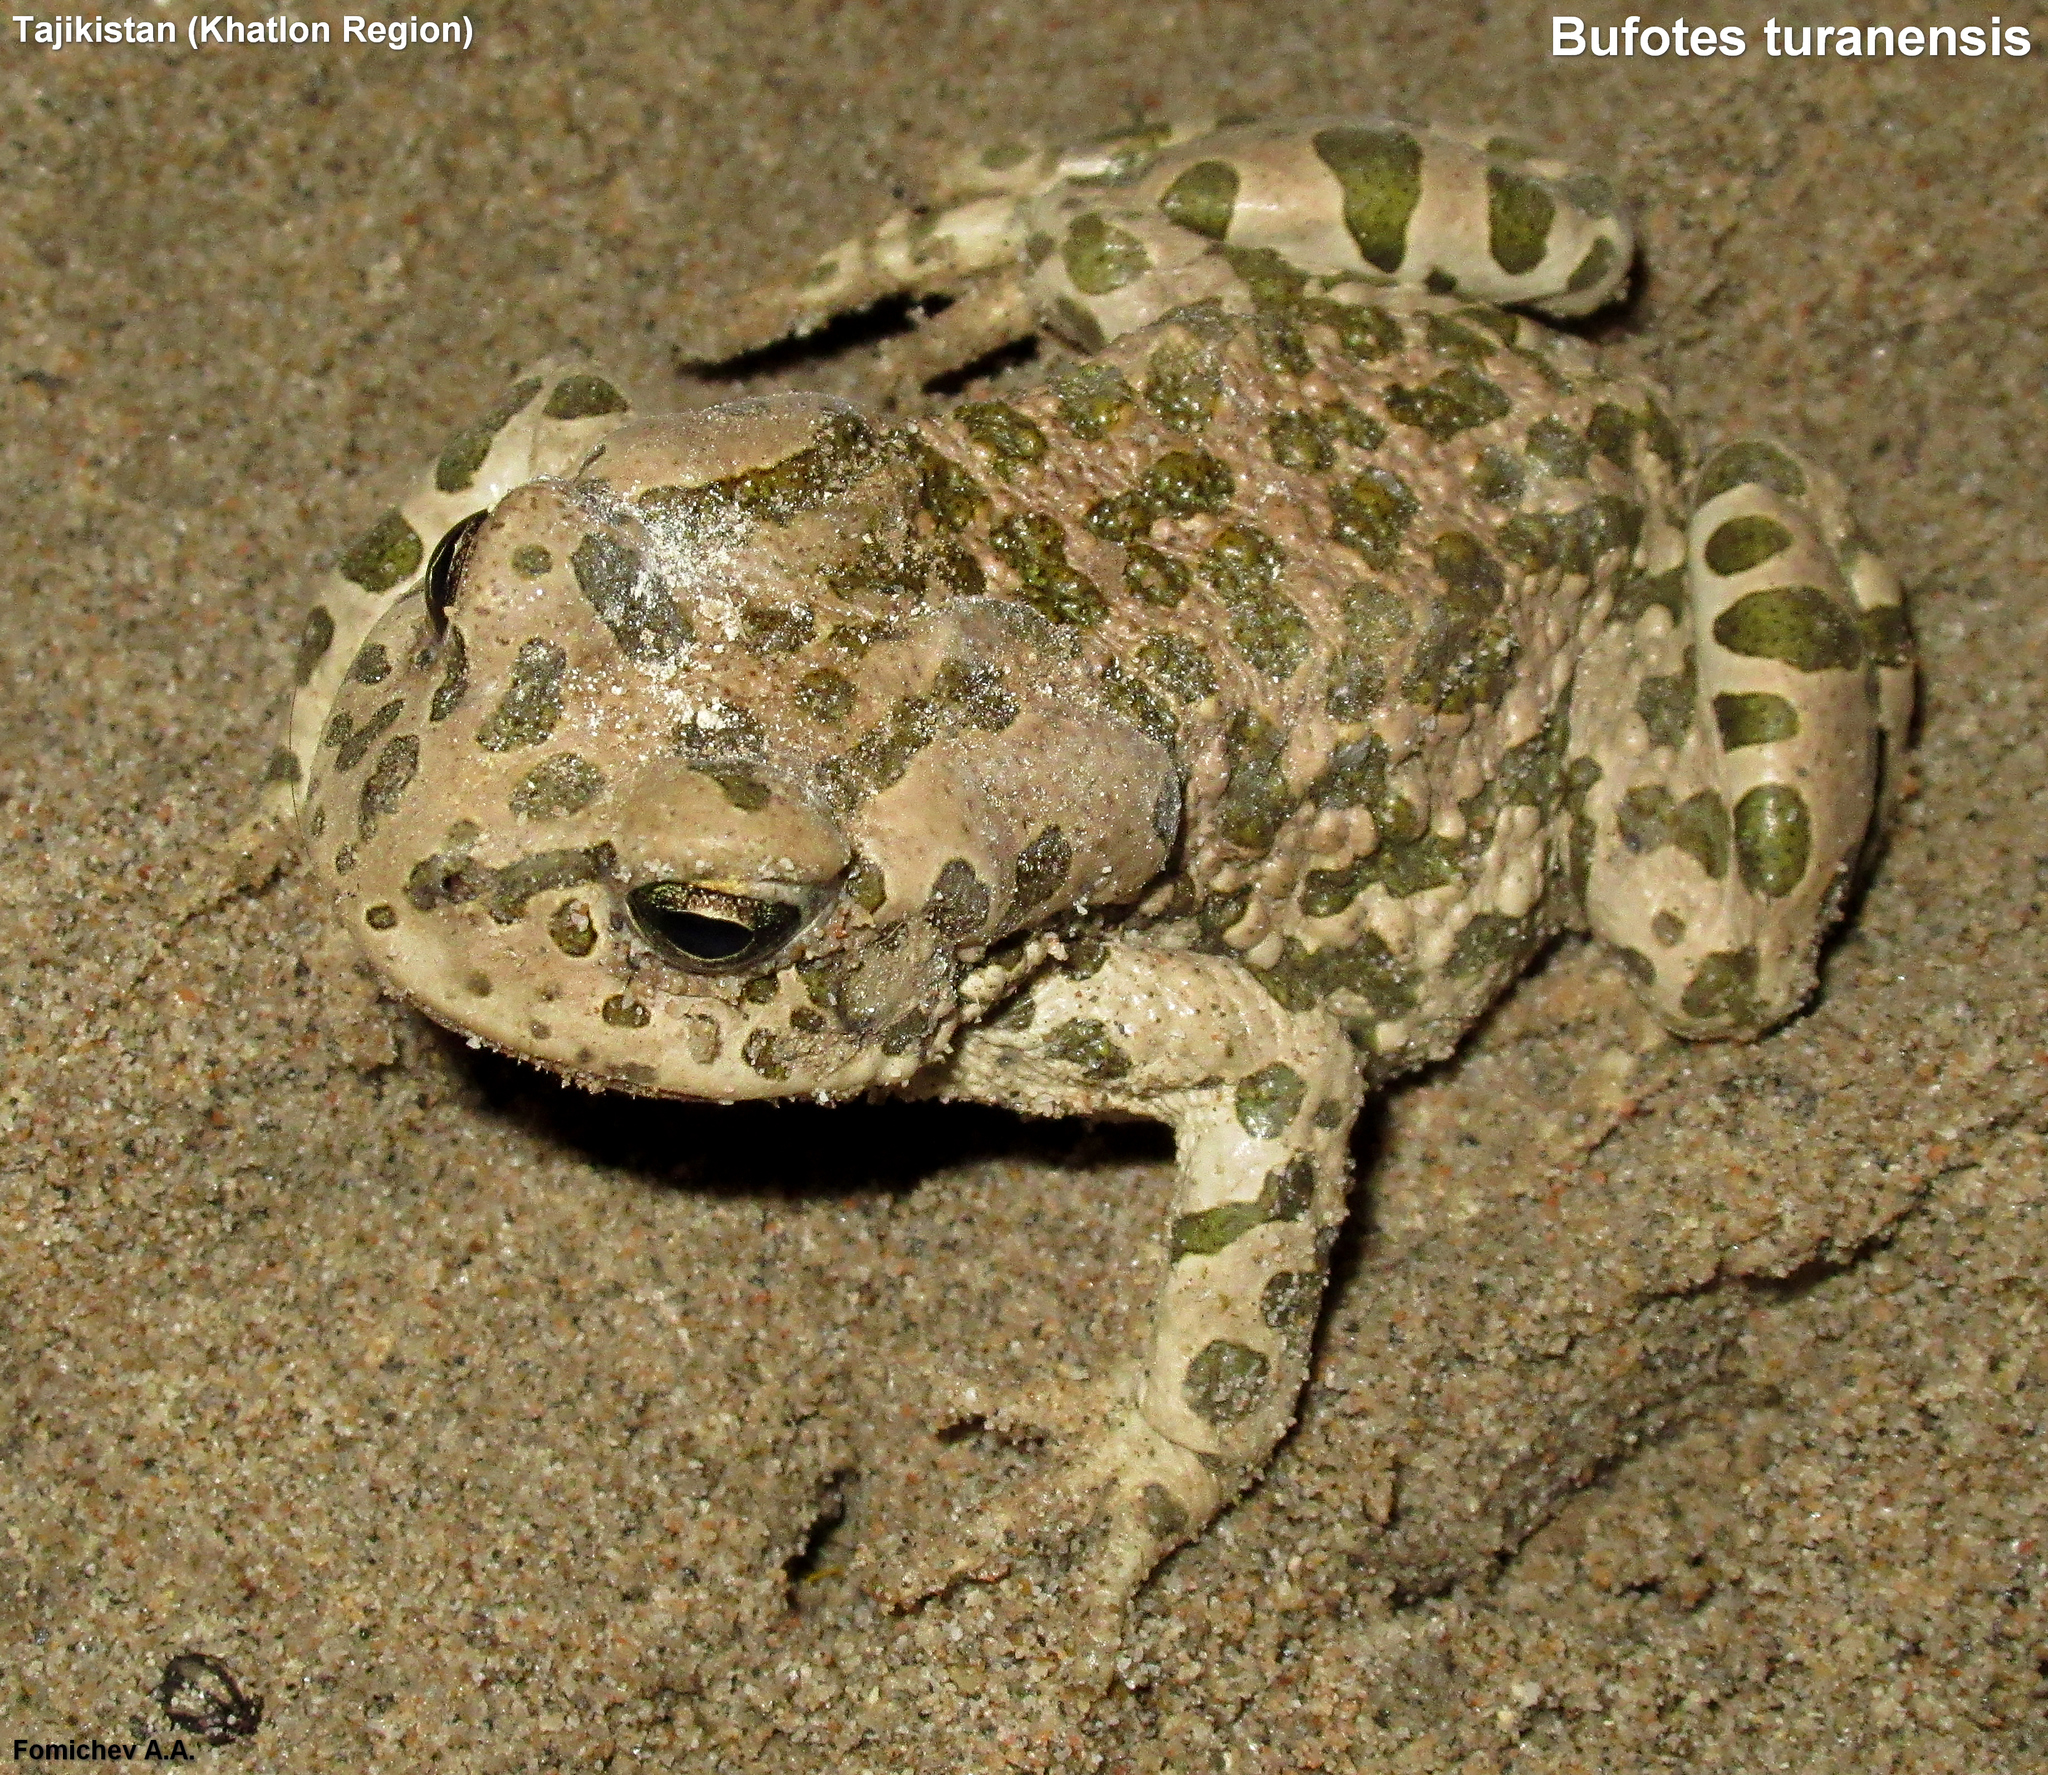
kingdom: Animalia
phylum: Chordata
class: Amphibia
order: Anura
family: Bufonidae
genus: Bufotes
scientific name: Bufotes turanensis
